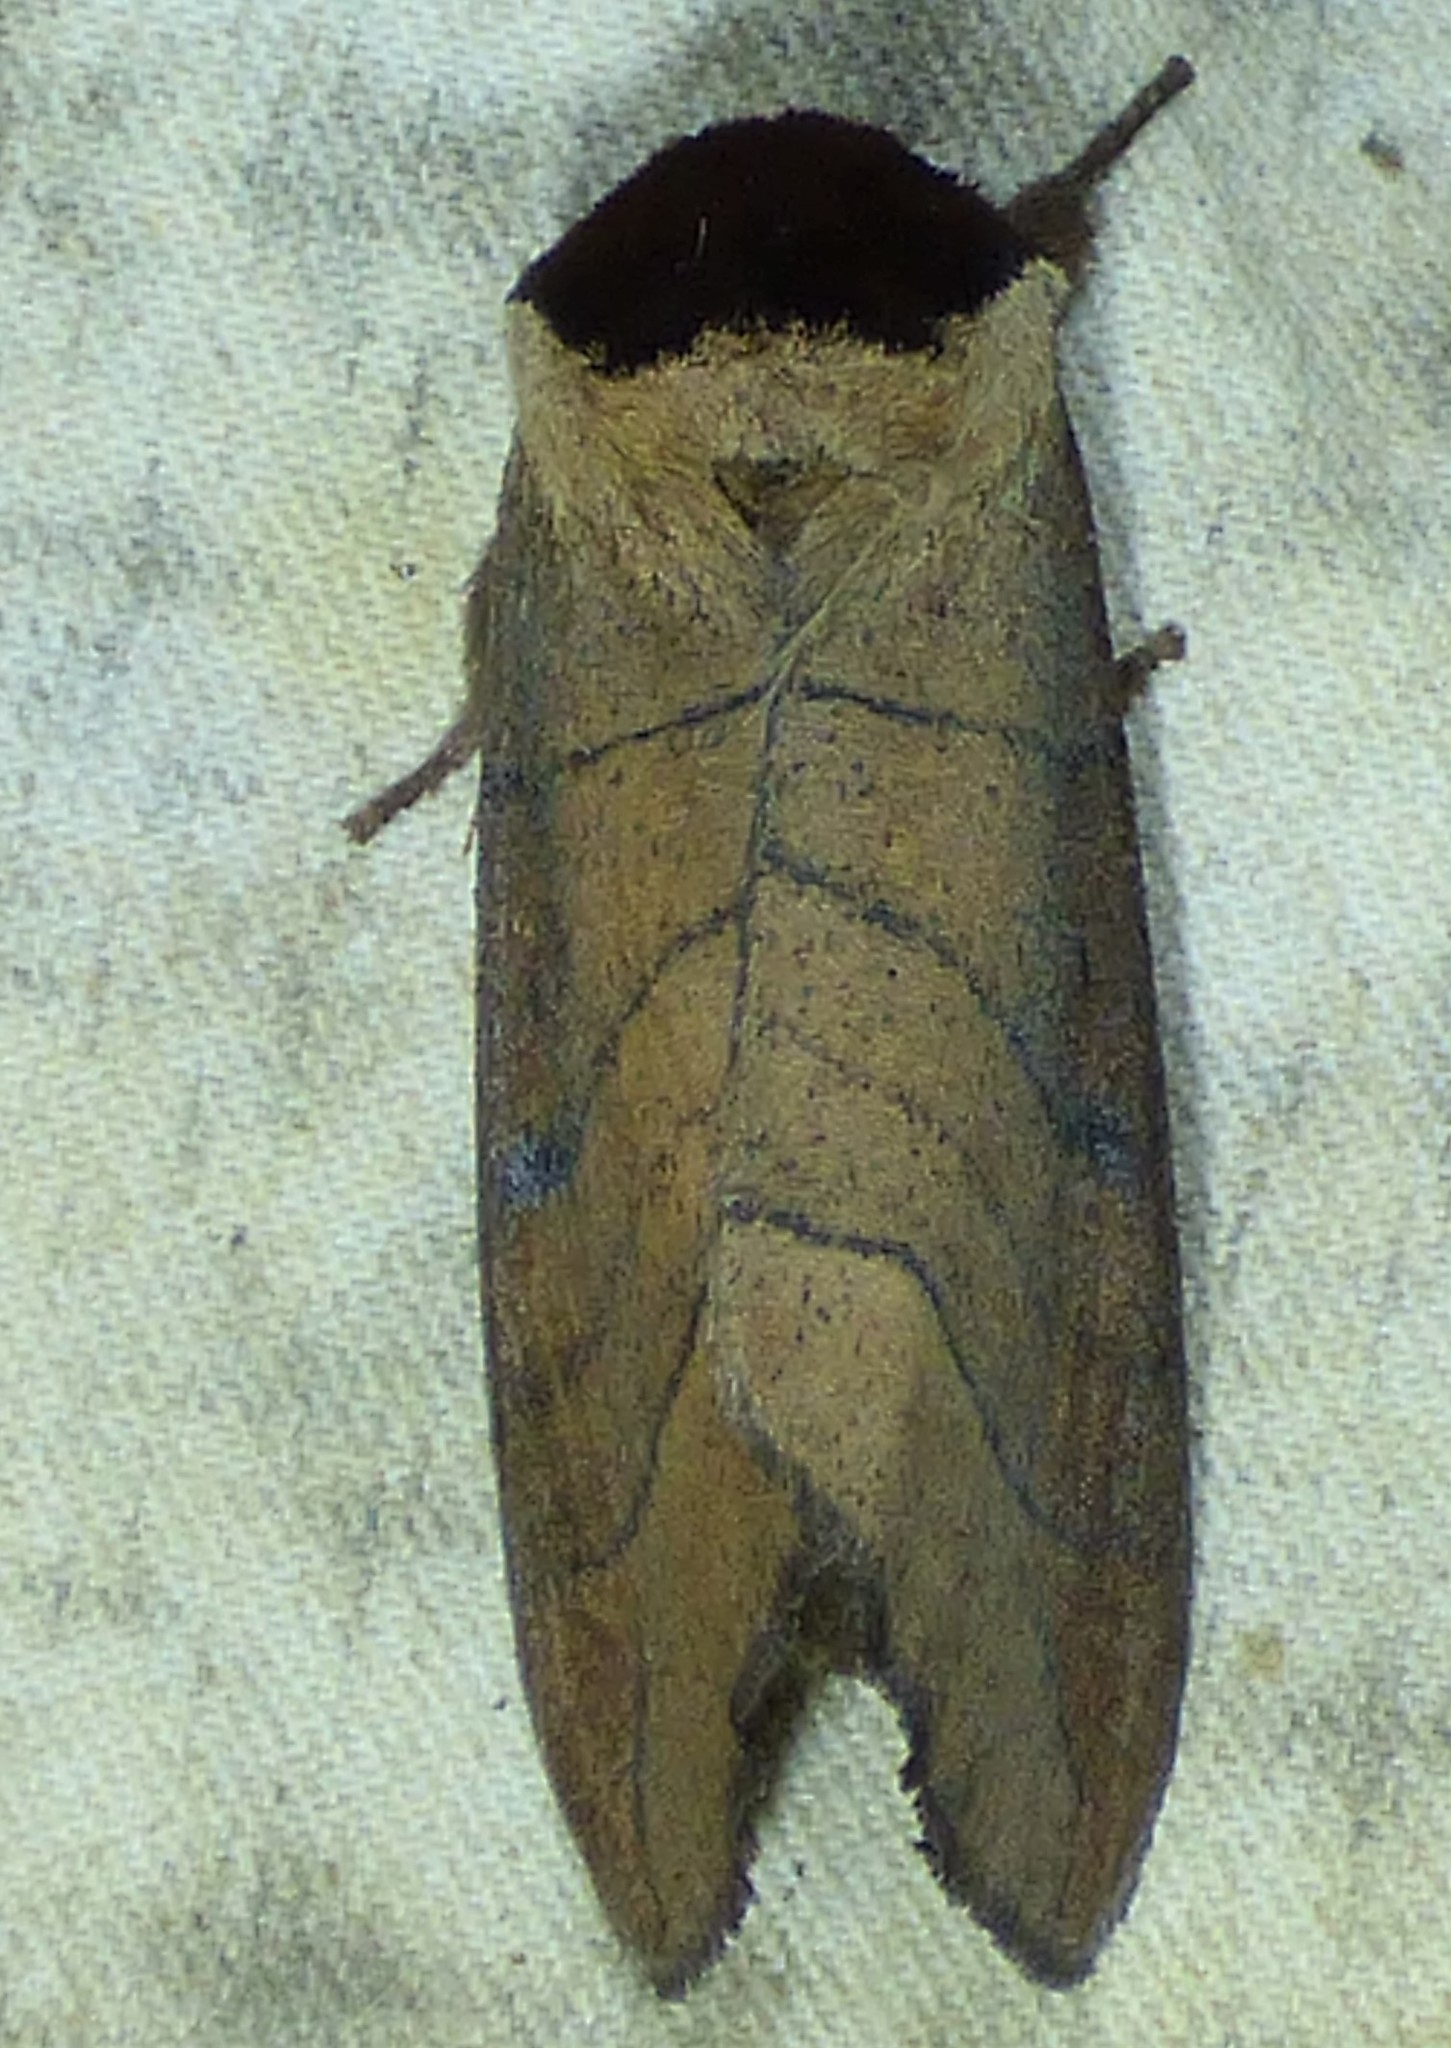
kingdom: Animalia
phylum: Arthropoda
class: Insecta
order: Lepidoptera
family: Notodontidae
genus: Datana
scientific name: Datana angusii
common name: Angus's datana
